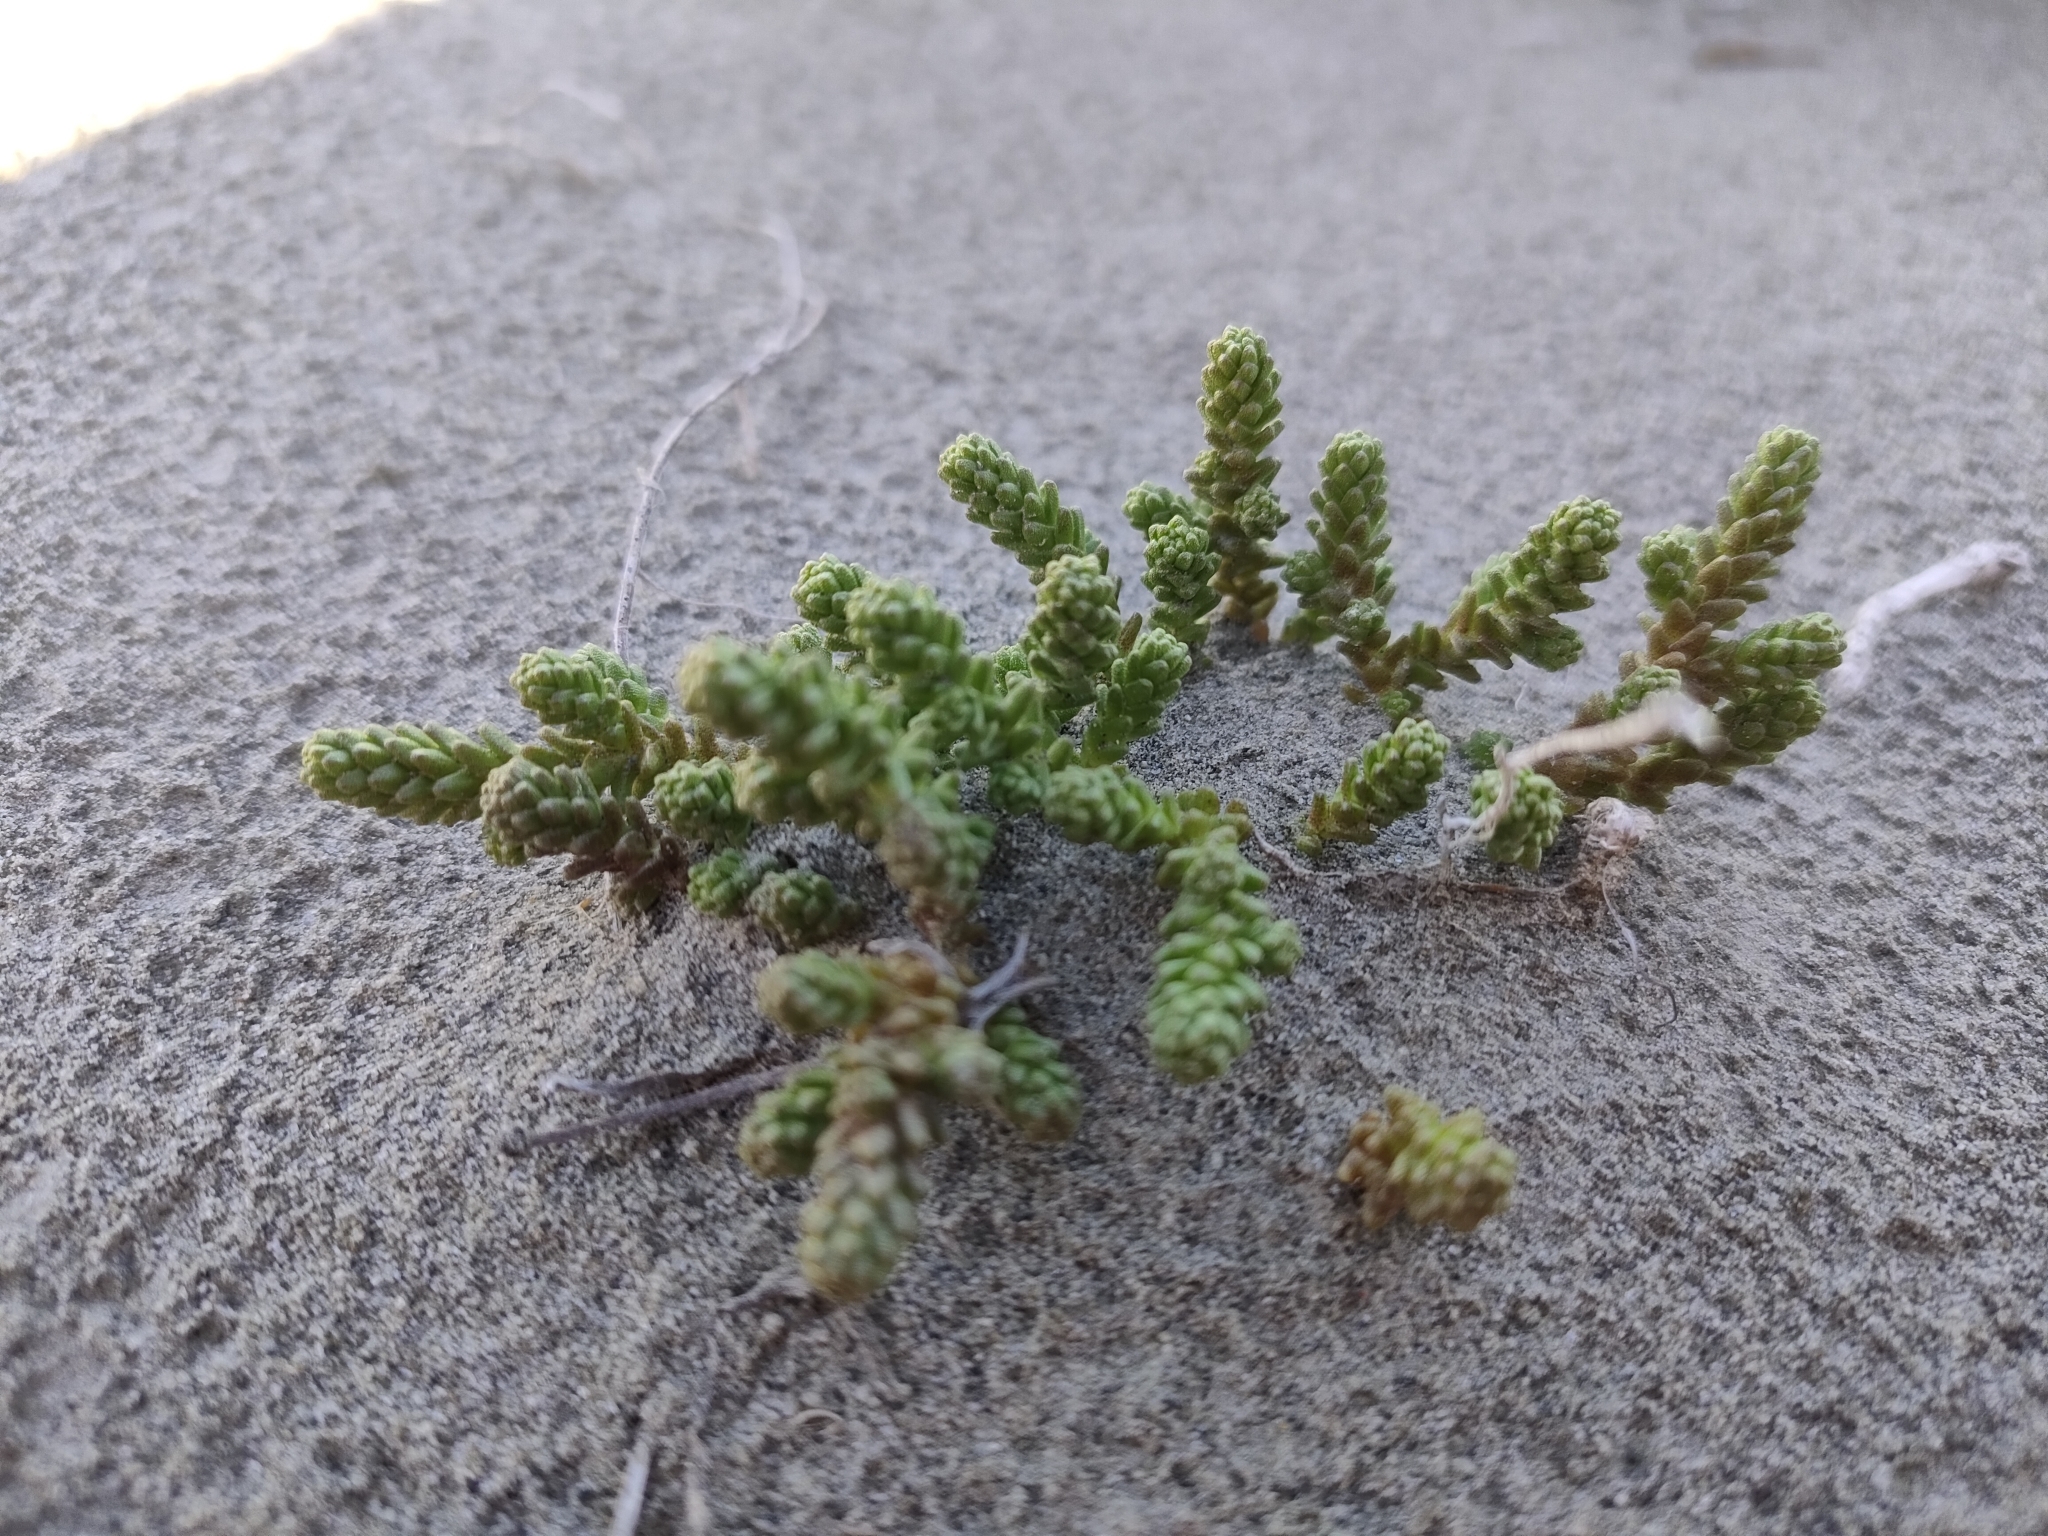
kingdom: Plantae
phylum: Tracheophyta
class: Magnoliopsida
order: Saxifragales
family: Crassulaceae
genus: Sedum
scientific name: Sedum acre
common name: Biting stonecrop
